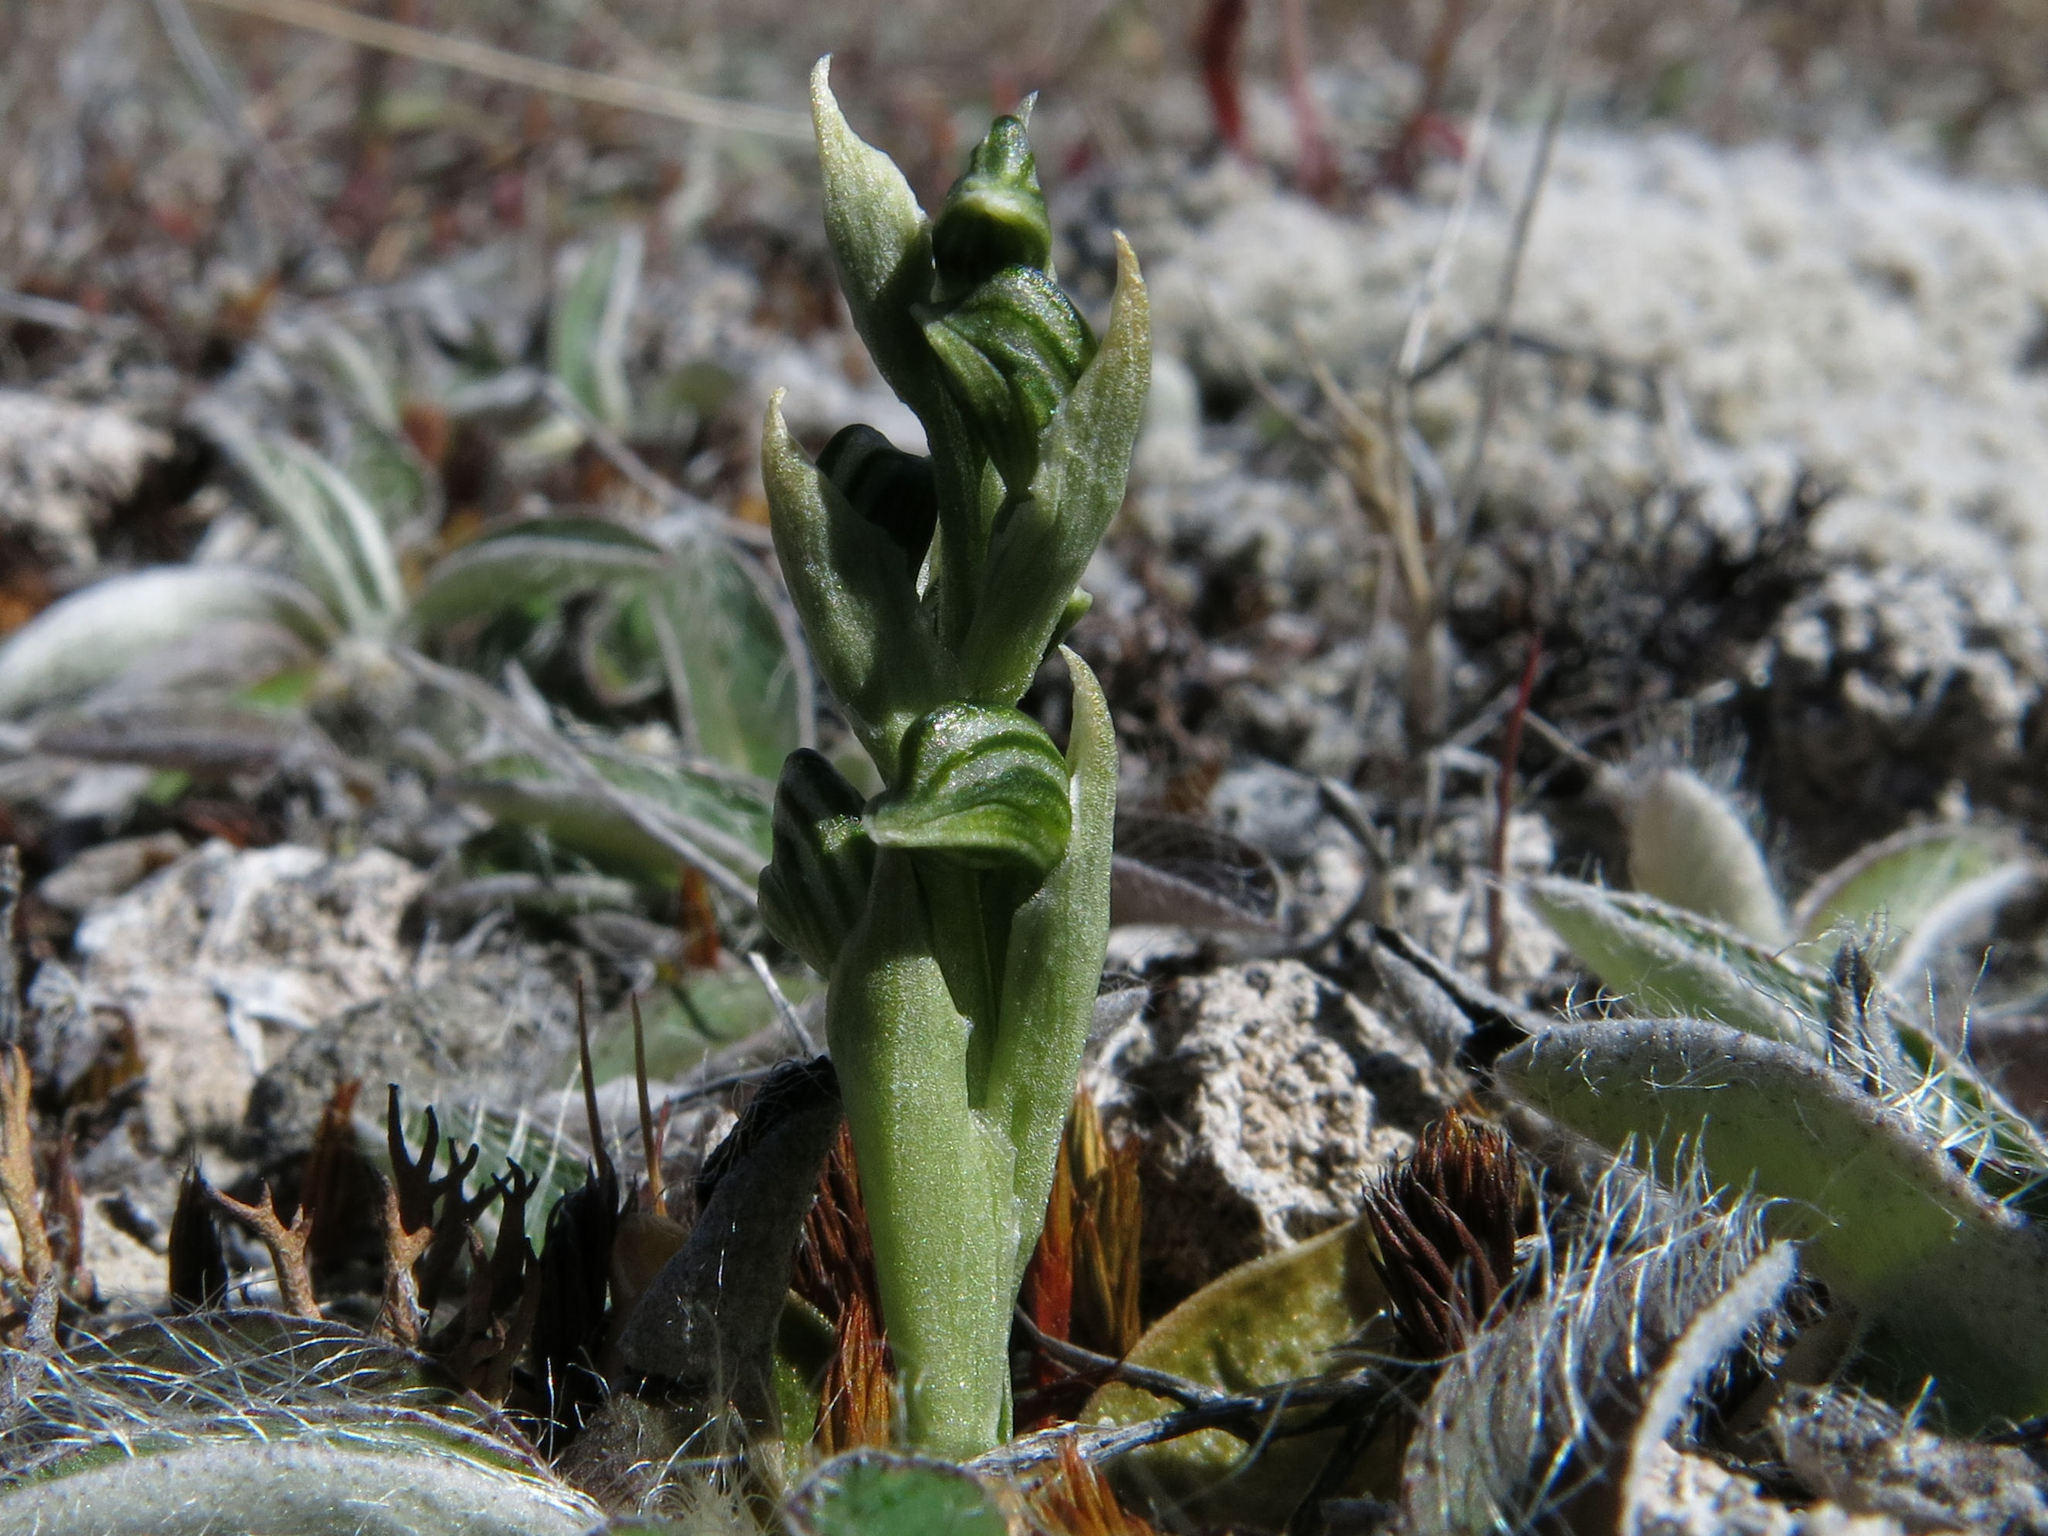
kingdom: Plantae
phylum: Tracheophyta
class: Liliopsida
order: Asparagales
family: Orchidaceae
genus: Pterostylis
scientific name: Pterostylis tanypoda
